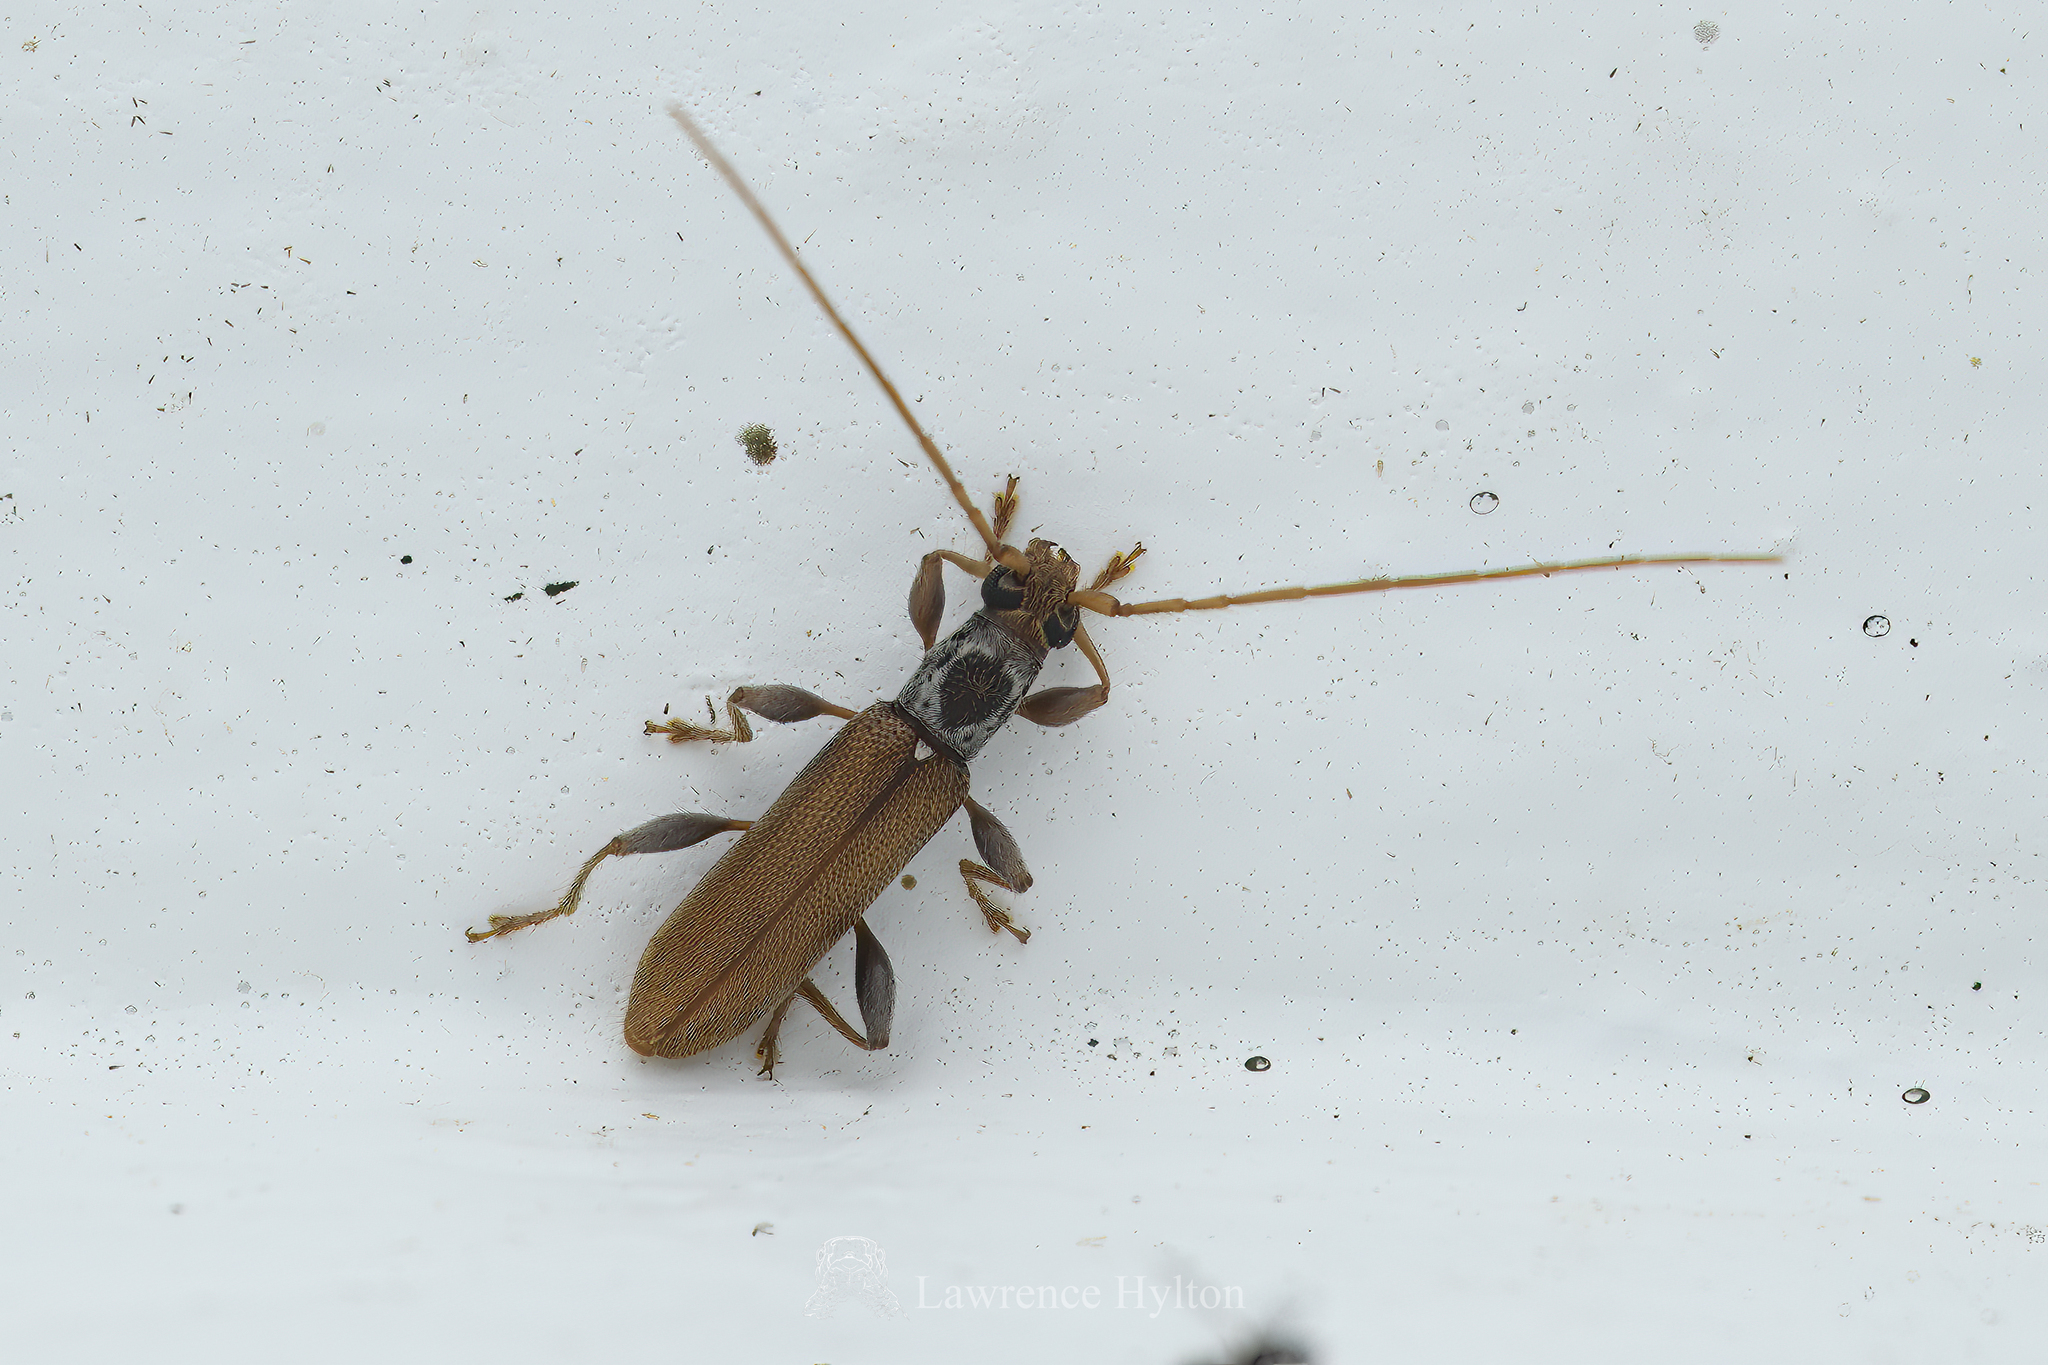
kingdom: Animalia
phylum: Arthropoda
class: Insecta
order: Coleoptera
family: Cerambycidae
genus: Ceresium
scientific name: Ceresium zeylanicum
